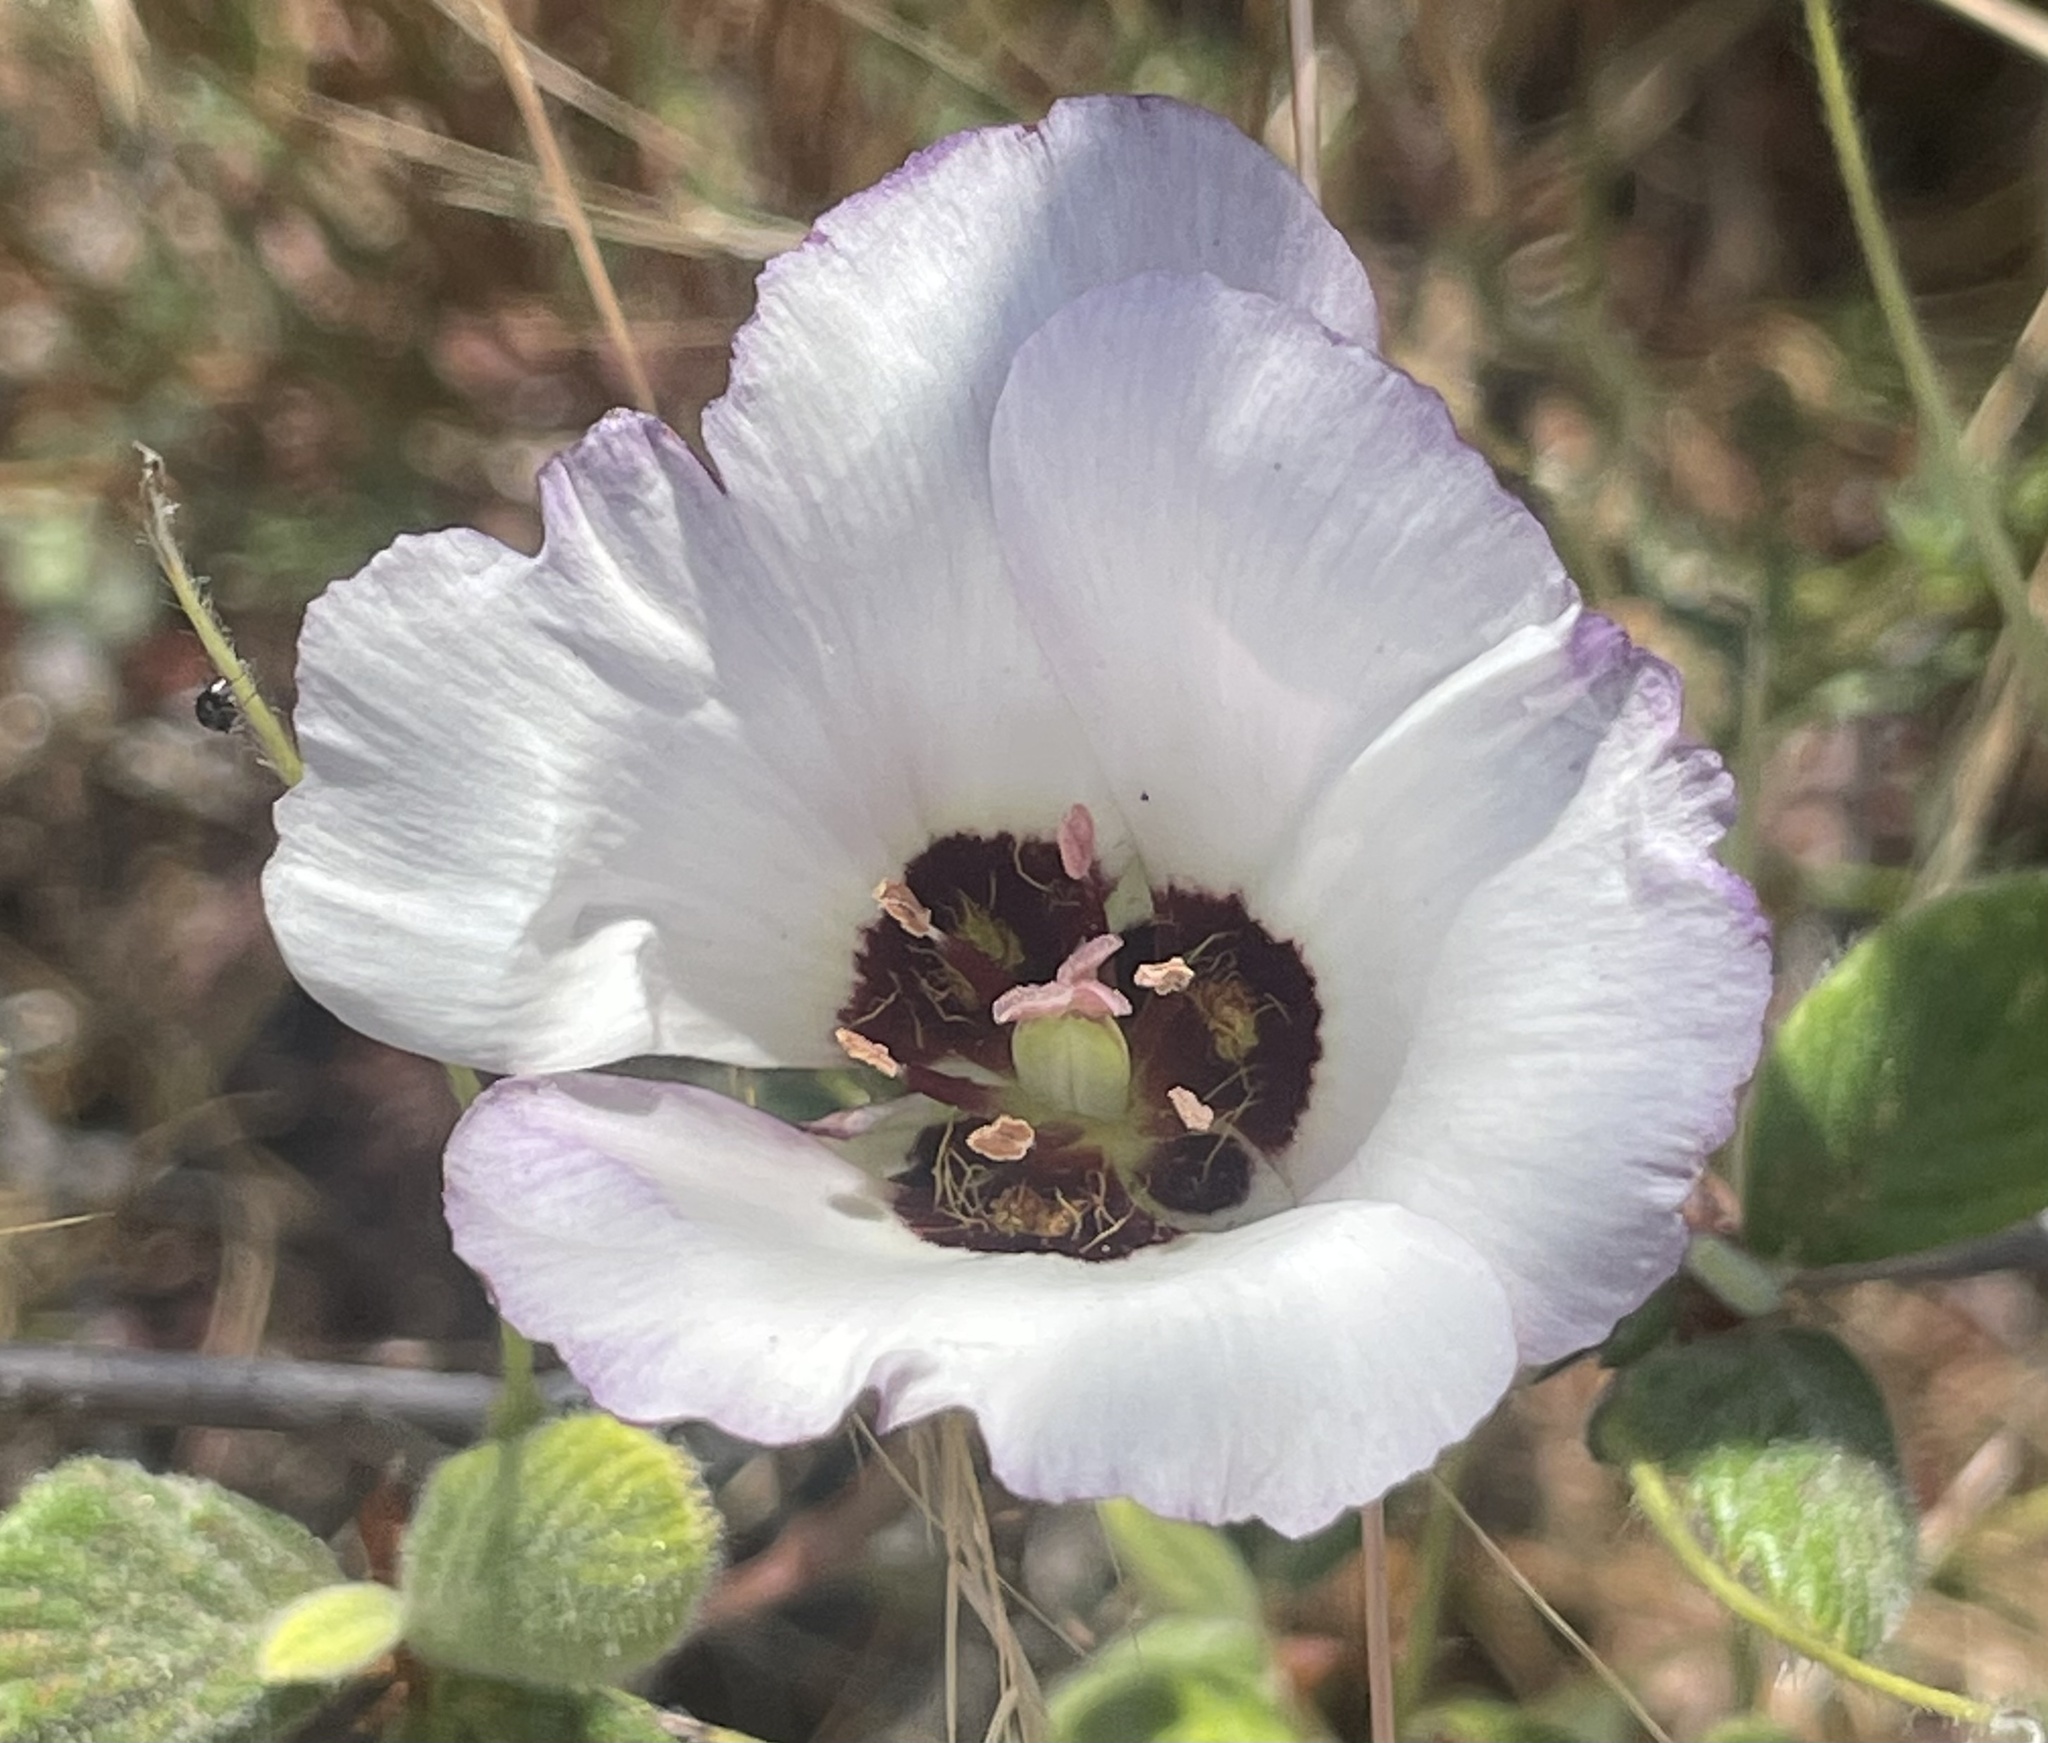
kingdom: Plantae
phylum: Tracheophyta
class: Liliopsida
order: Liliales
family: Liliaceae
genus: Calochortus
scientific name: Calochortus catalinae
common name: Catalina mariposa-lily
